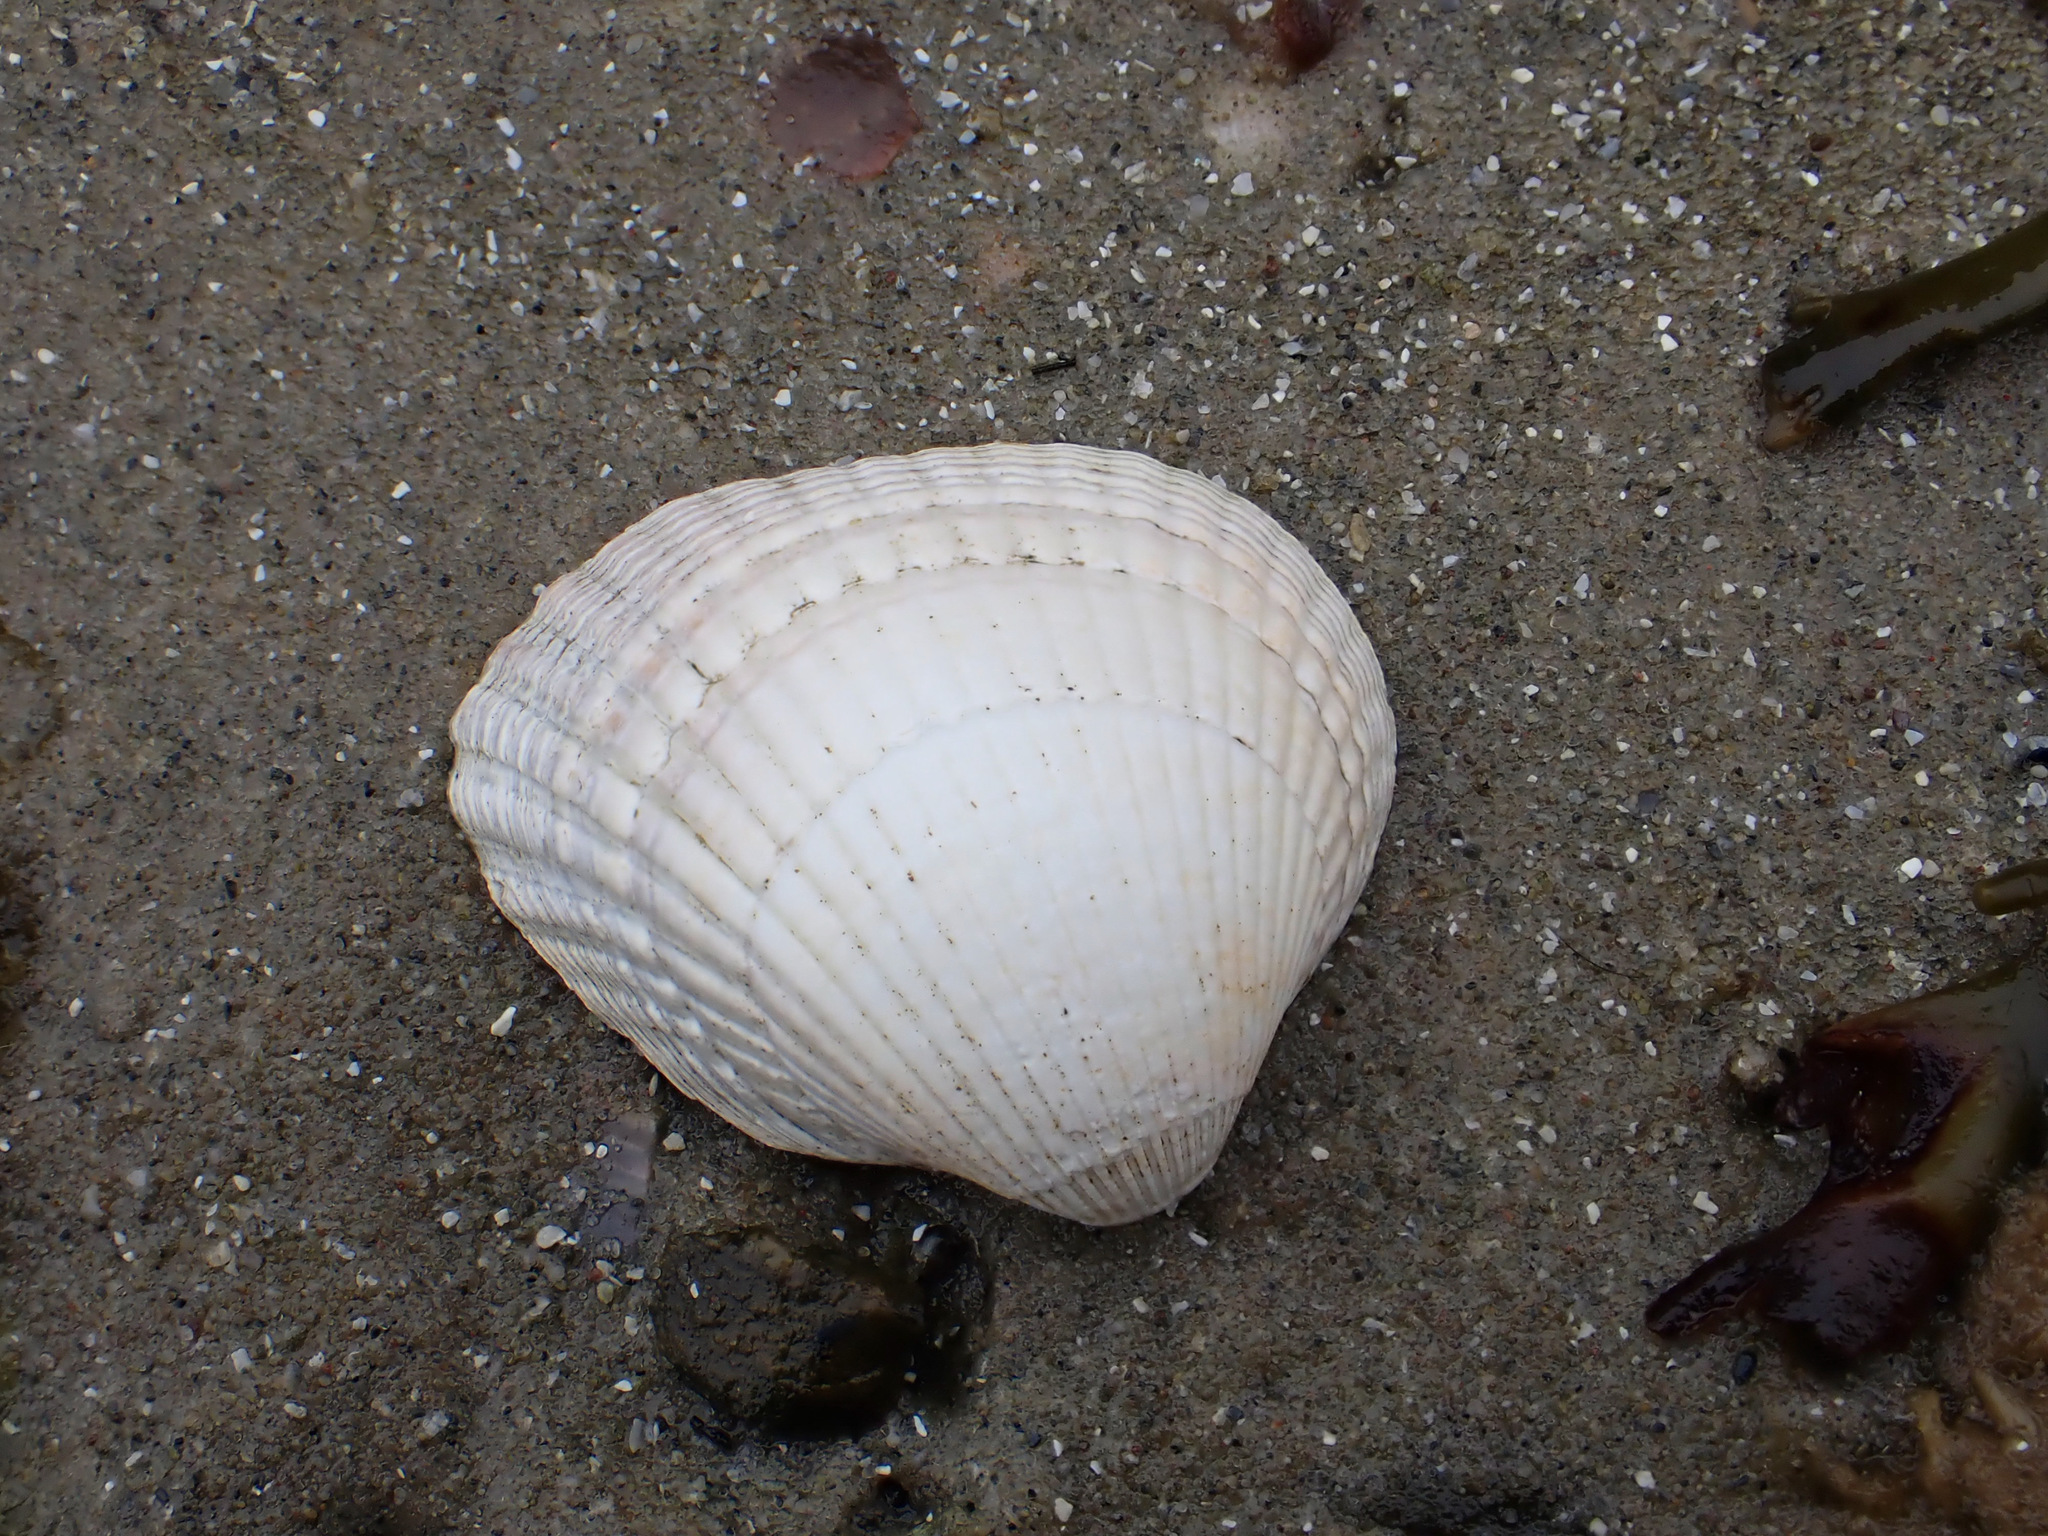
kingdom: Animalia
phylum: Mollusca
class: Bivalvia
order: Cardiida
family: Cardiidae
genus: Cerastoderma
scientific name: Cerastoderma edule
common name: Common cockle
